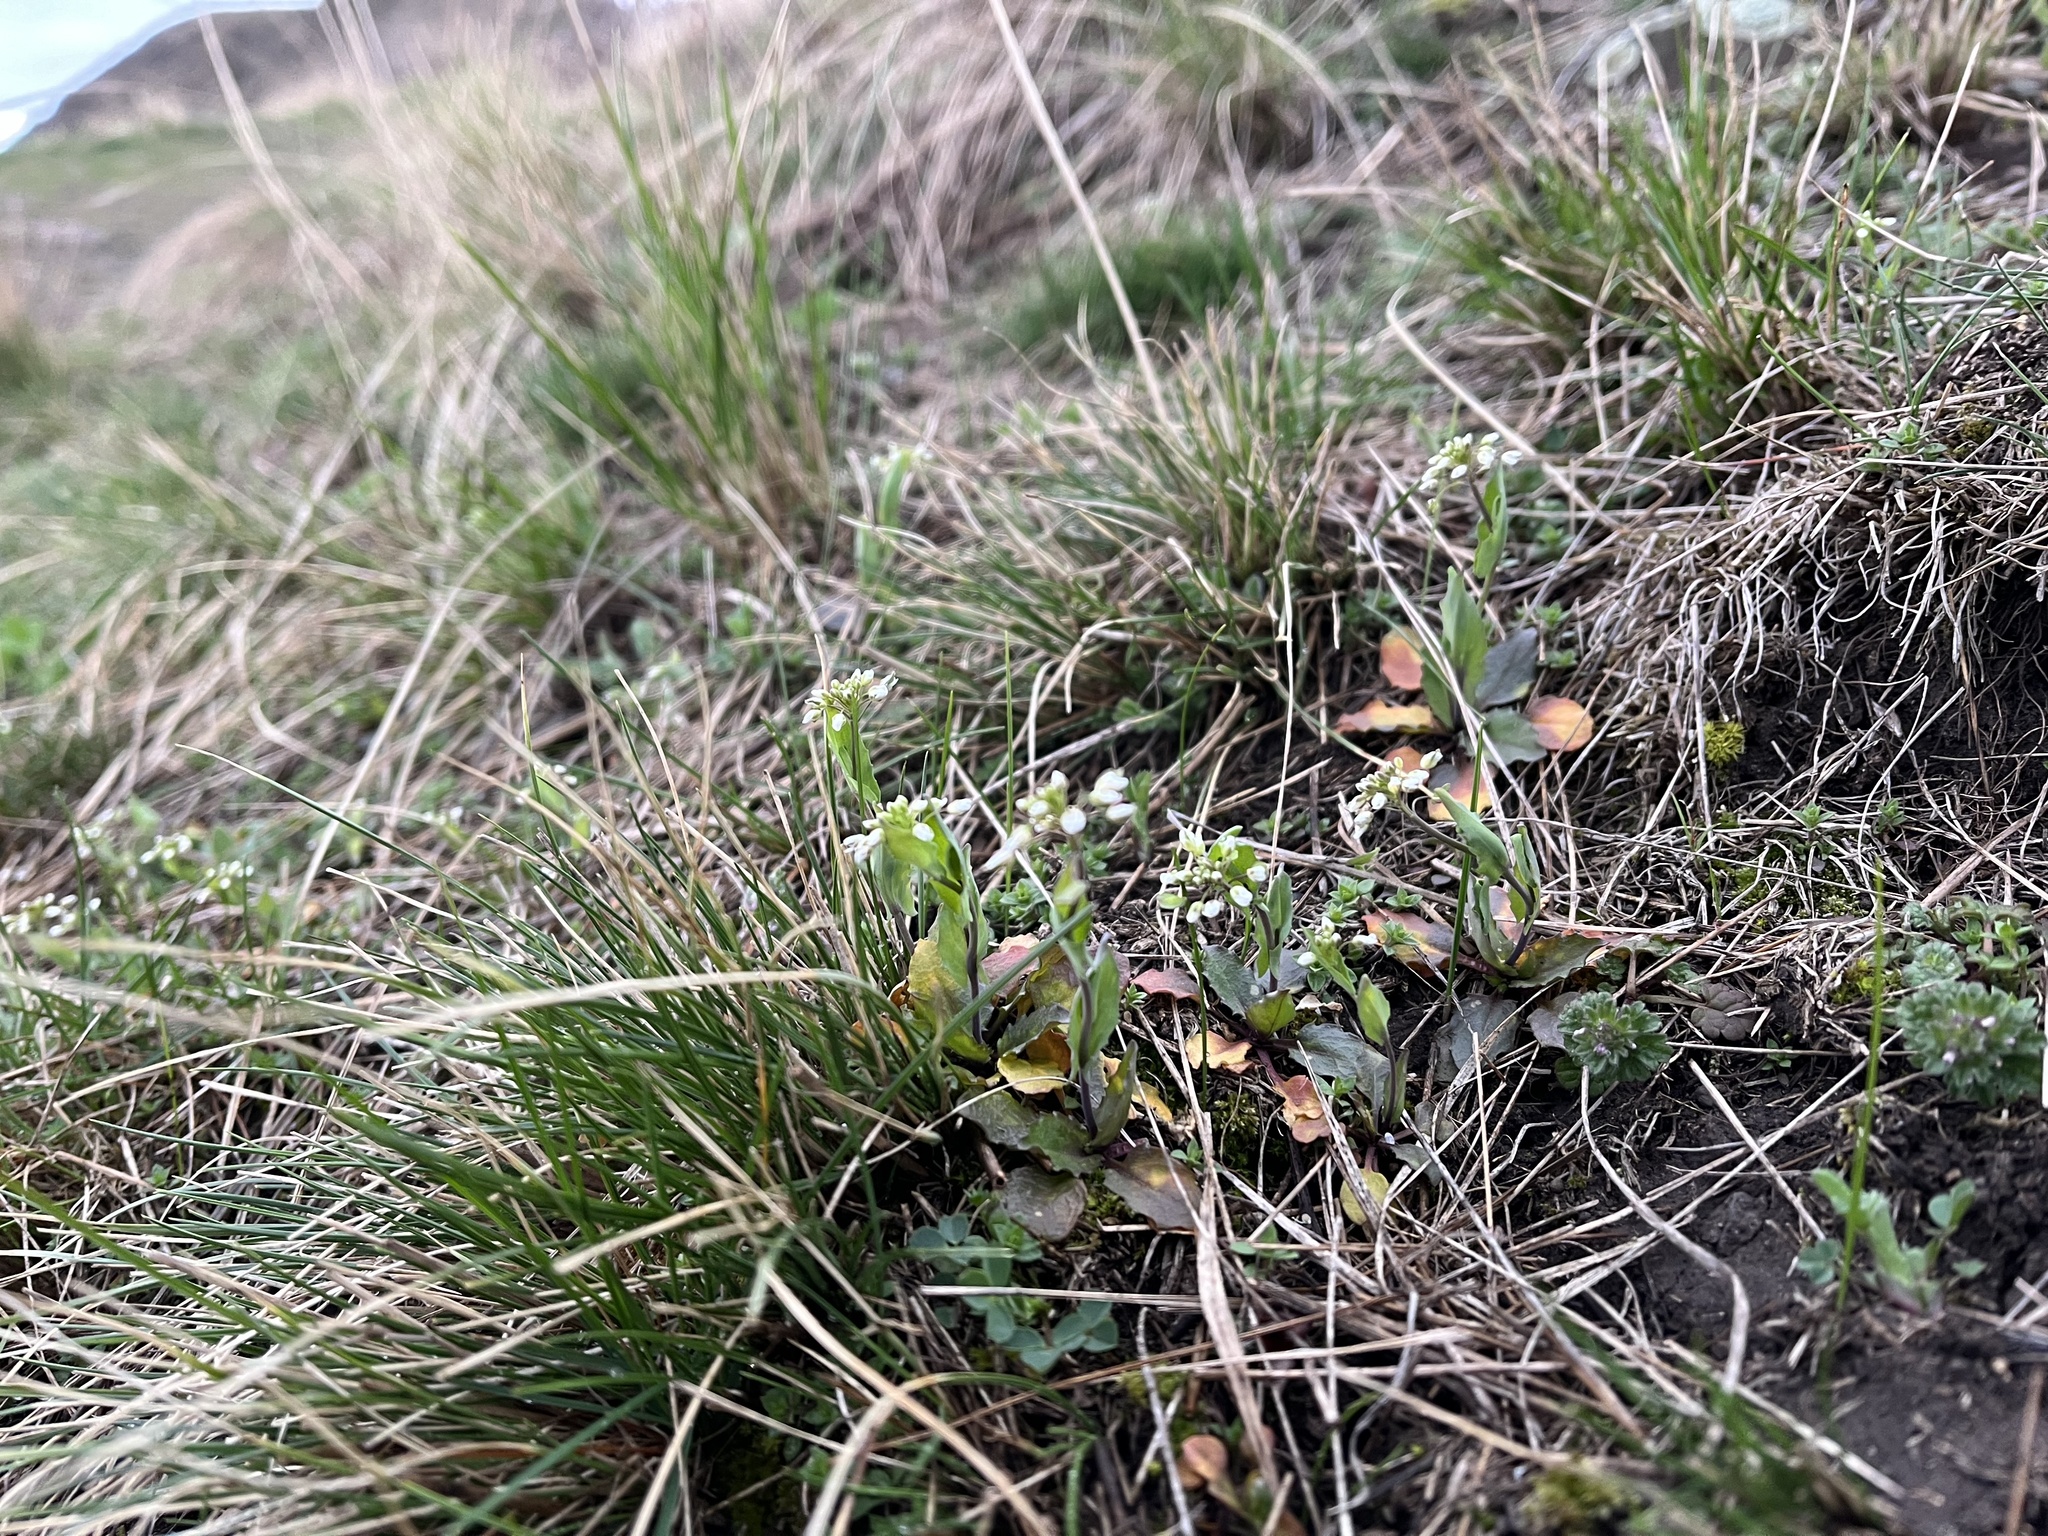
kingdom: Plantae
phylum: Tracheophyta
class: Magnoliopsida
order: Brassicales
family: Brassicaceae
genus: Noccaea
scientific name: Noccaea perfoliata
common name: Perfoliate pennycress
